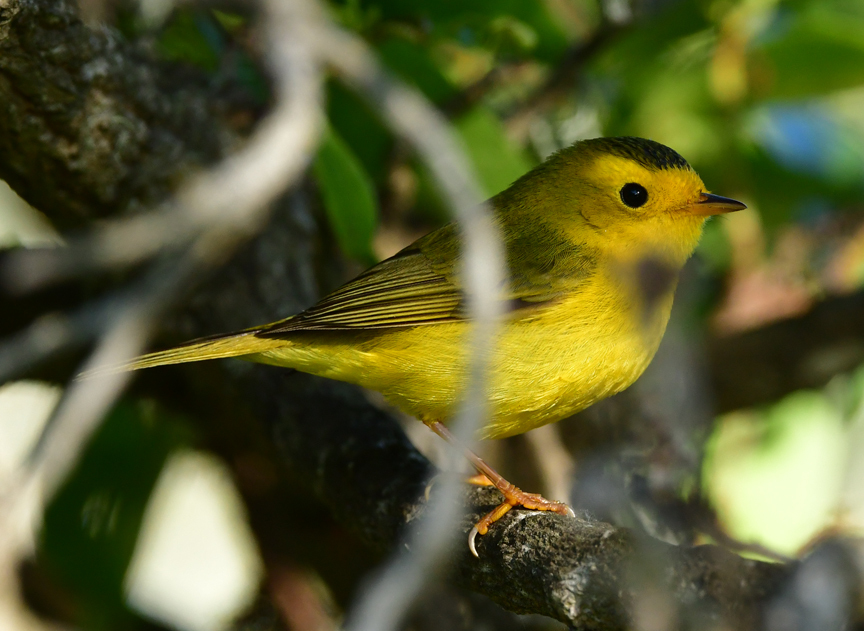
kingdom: Animalia
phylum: Chordata
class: Aves
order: Passeriformes
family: Parulidae
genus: Cardellina
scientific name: Cardellina pusilla
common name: Wilson's warbler
